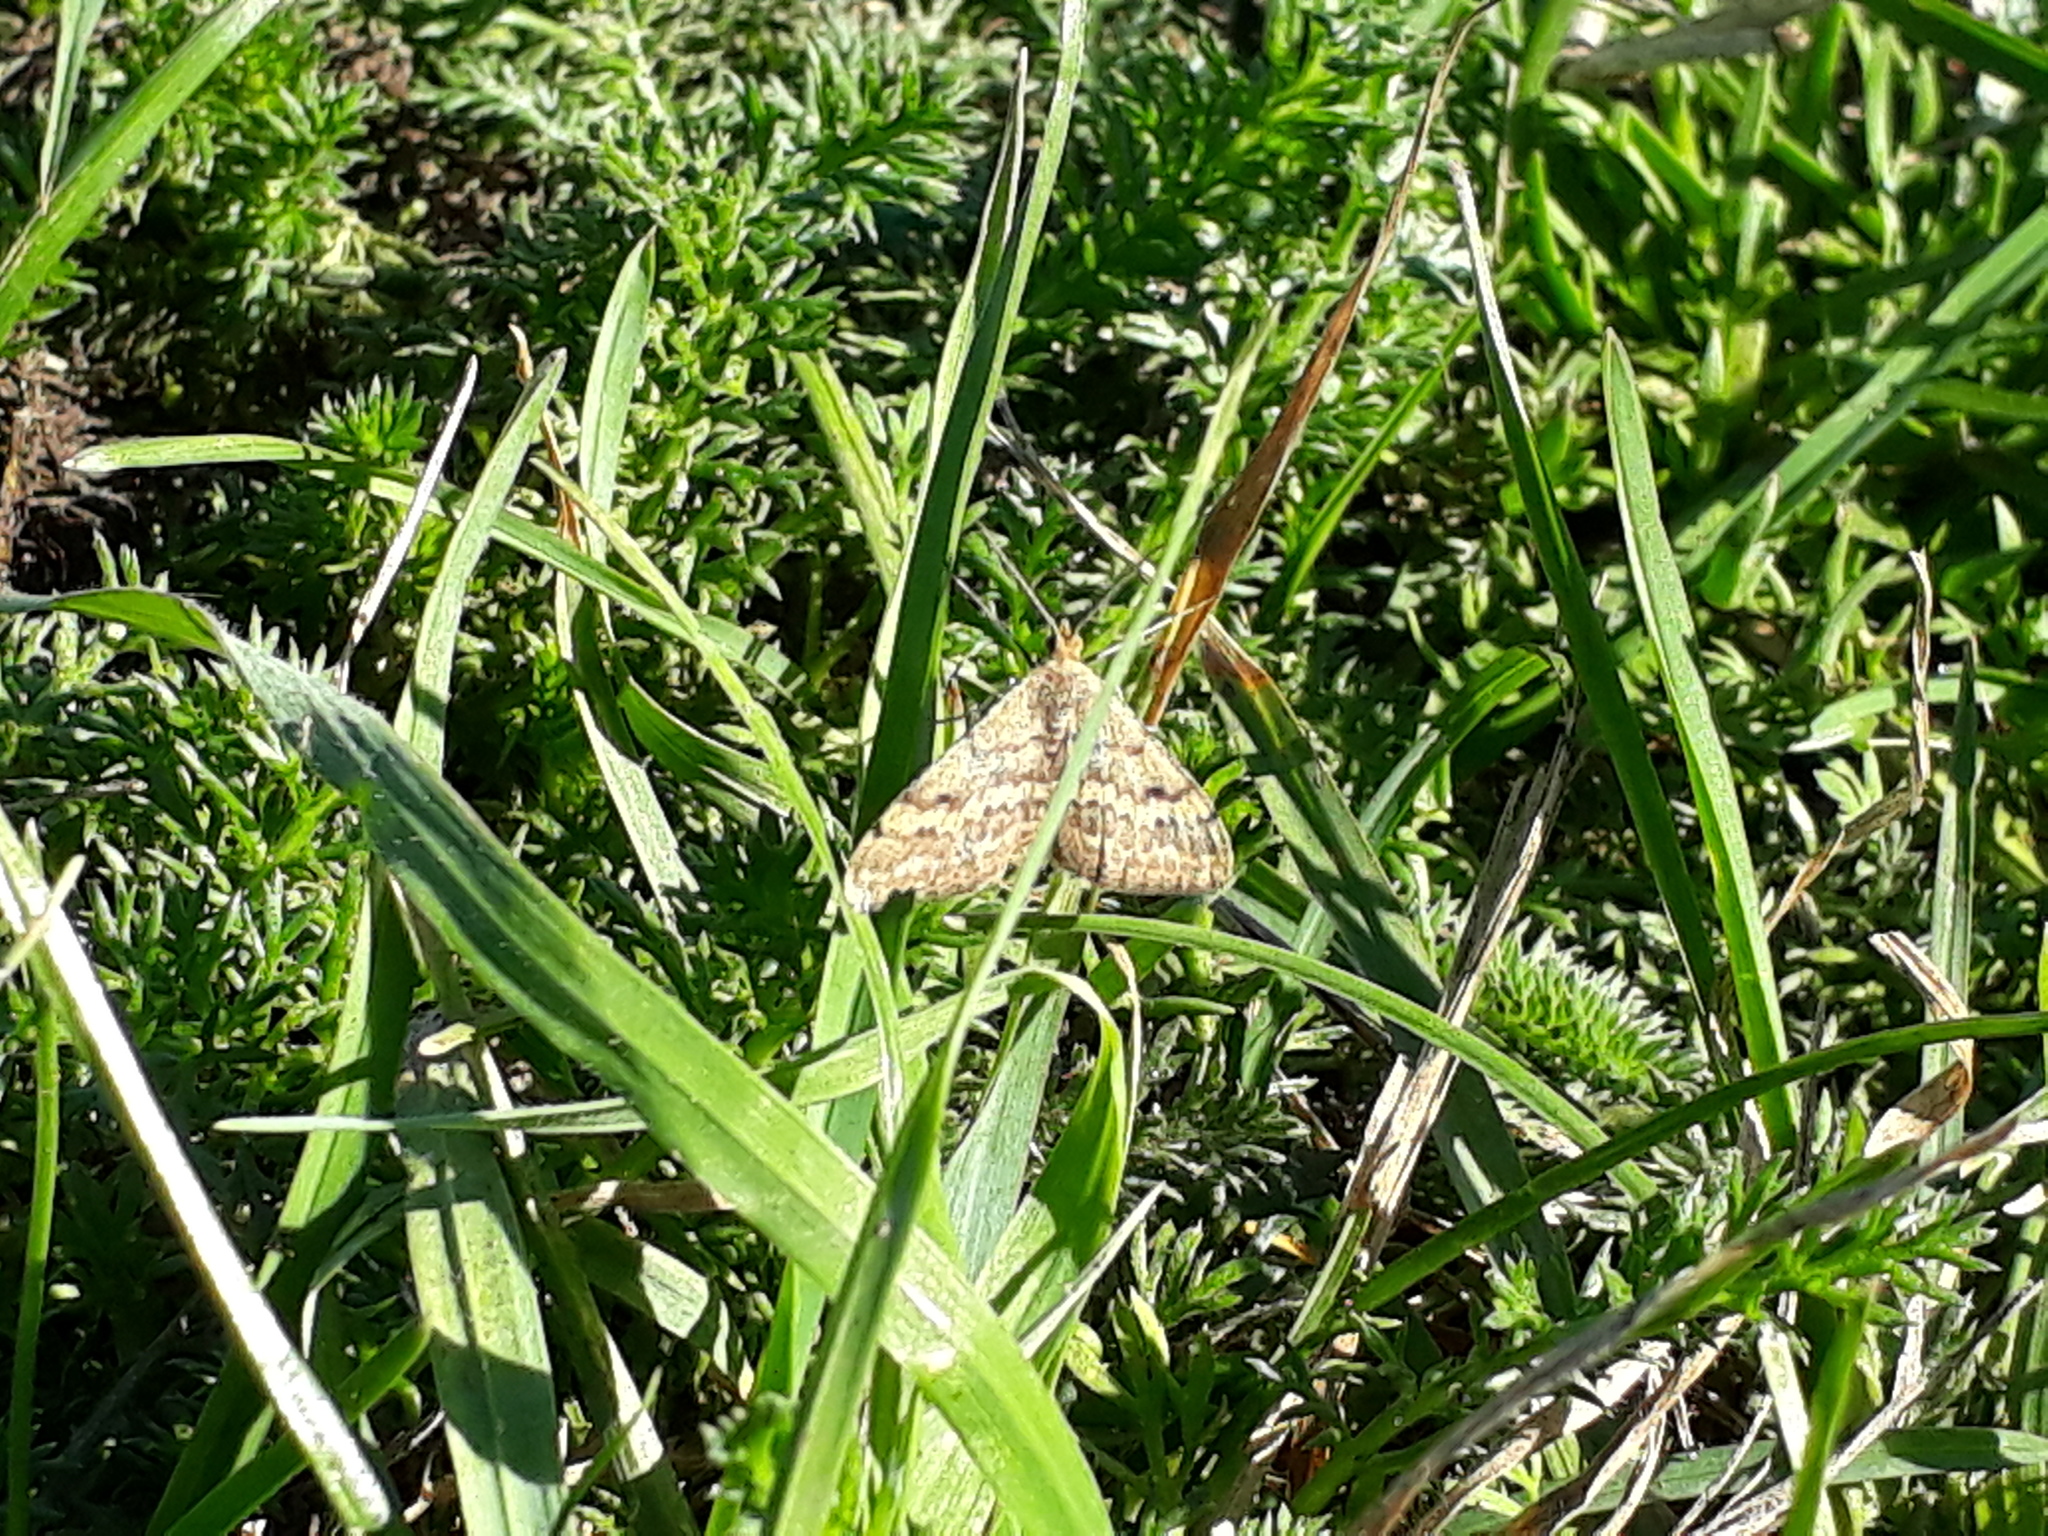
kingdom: Animalia
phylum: Arthropoda
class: Insecta
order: Lepidoptera
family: Geometridae
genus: Scopula
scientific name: Scopula rubraria
